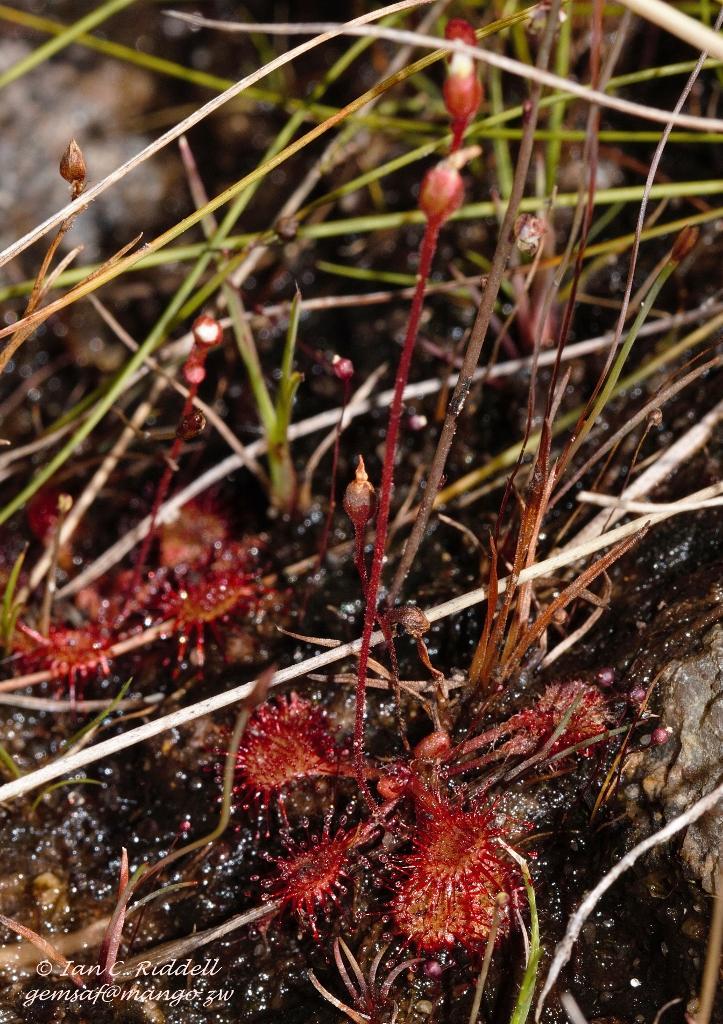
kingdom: Plantae
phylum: Tracheophyta
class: Magnoliopsida
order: Caryophyllales
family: Droseraceae
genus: Drosera
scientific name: Drosera burkeana
